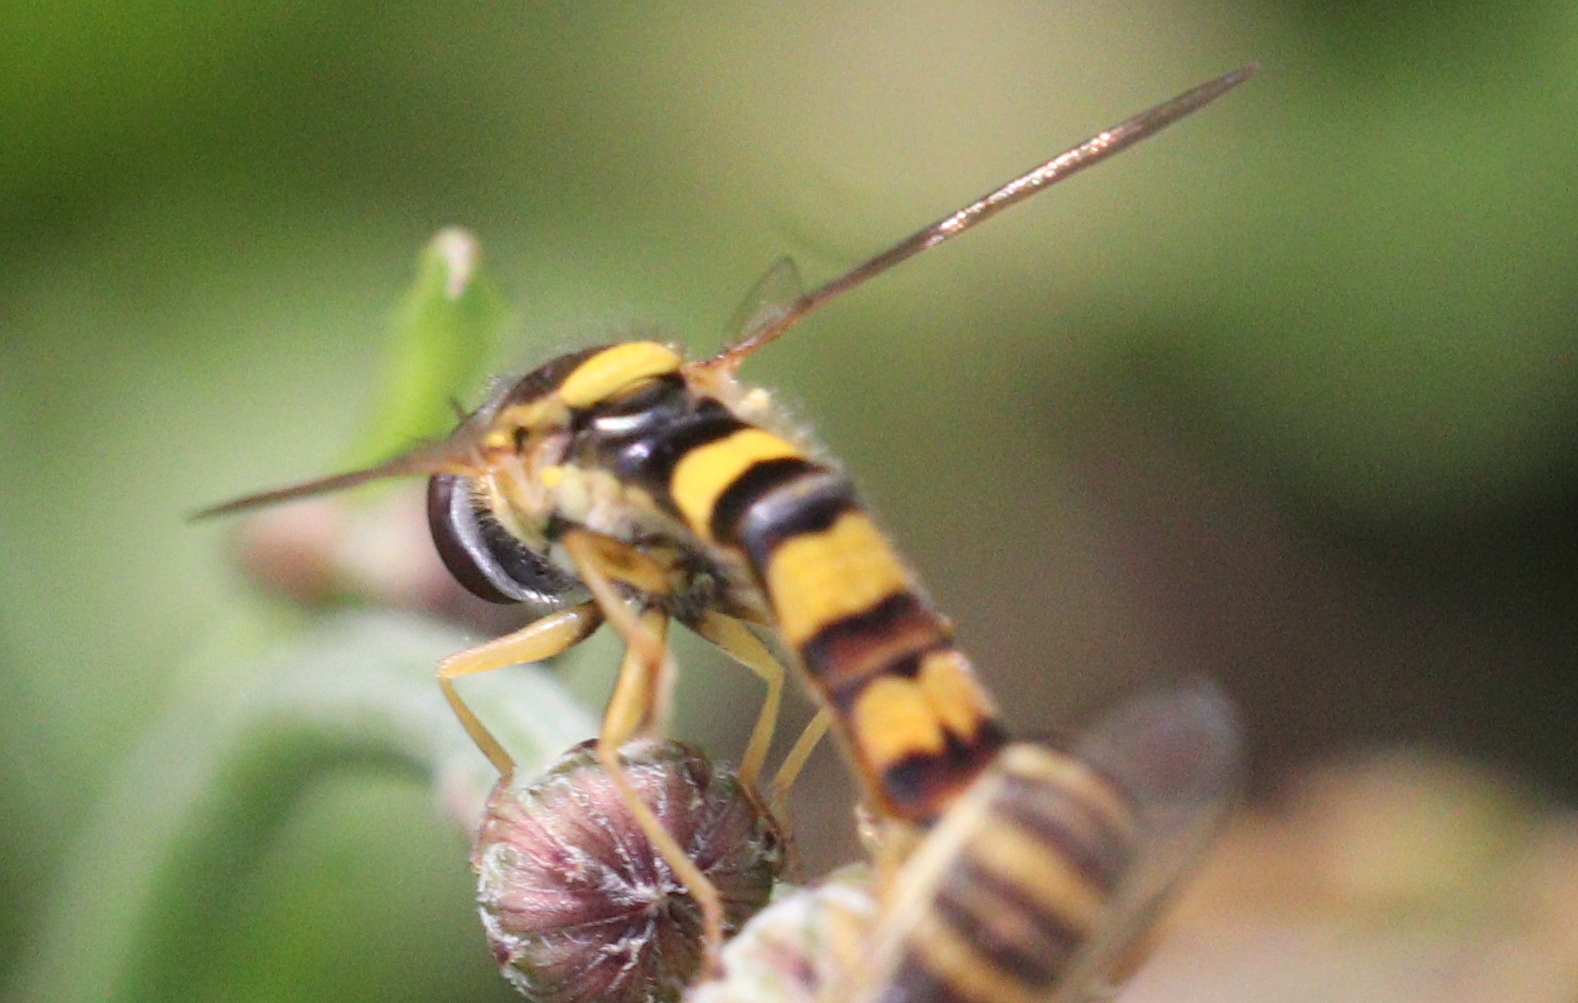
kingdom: Animalia
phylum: Arthropoda
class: Insecta
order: Diptera
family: Syrphidae
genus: Sphaerophoria
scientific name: Sphaerophoria scripta
